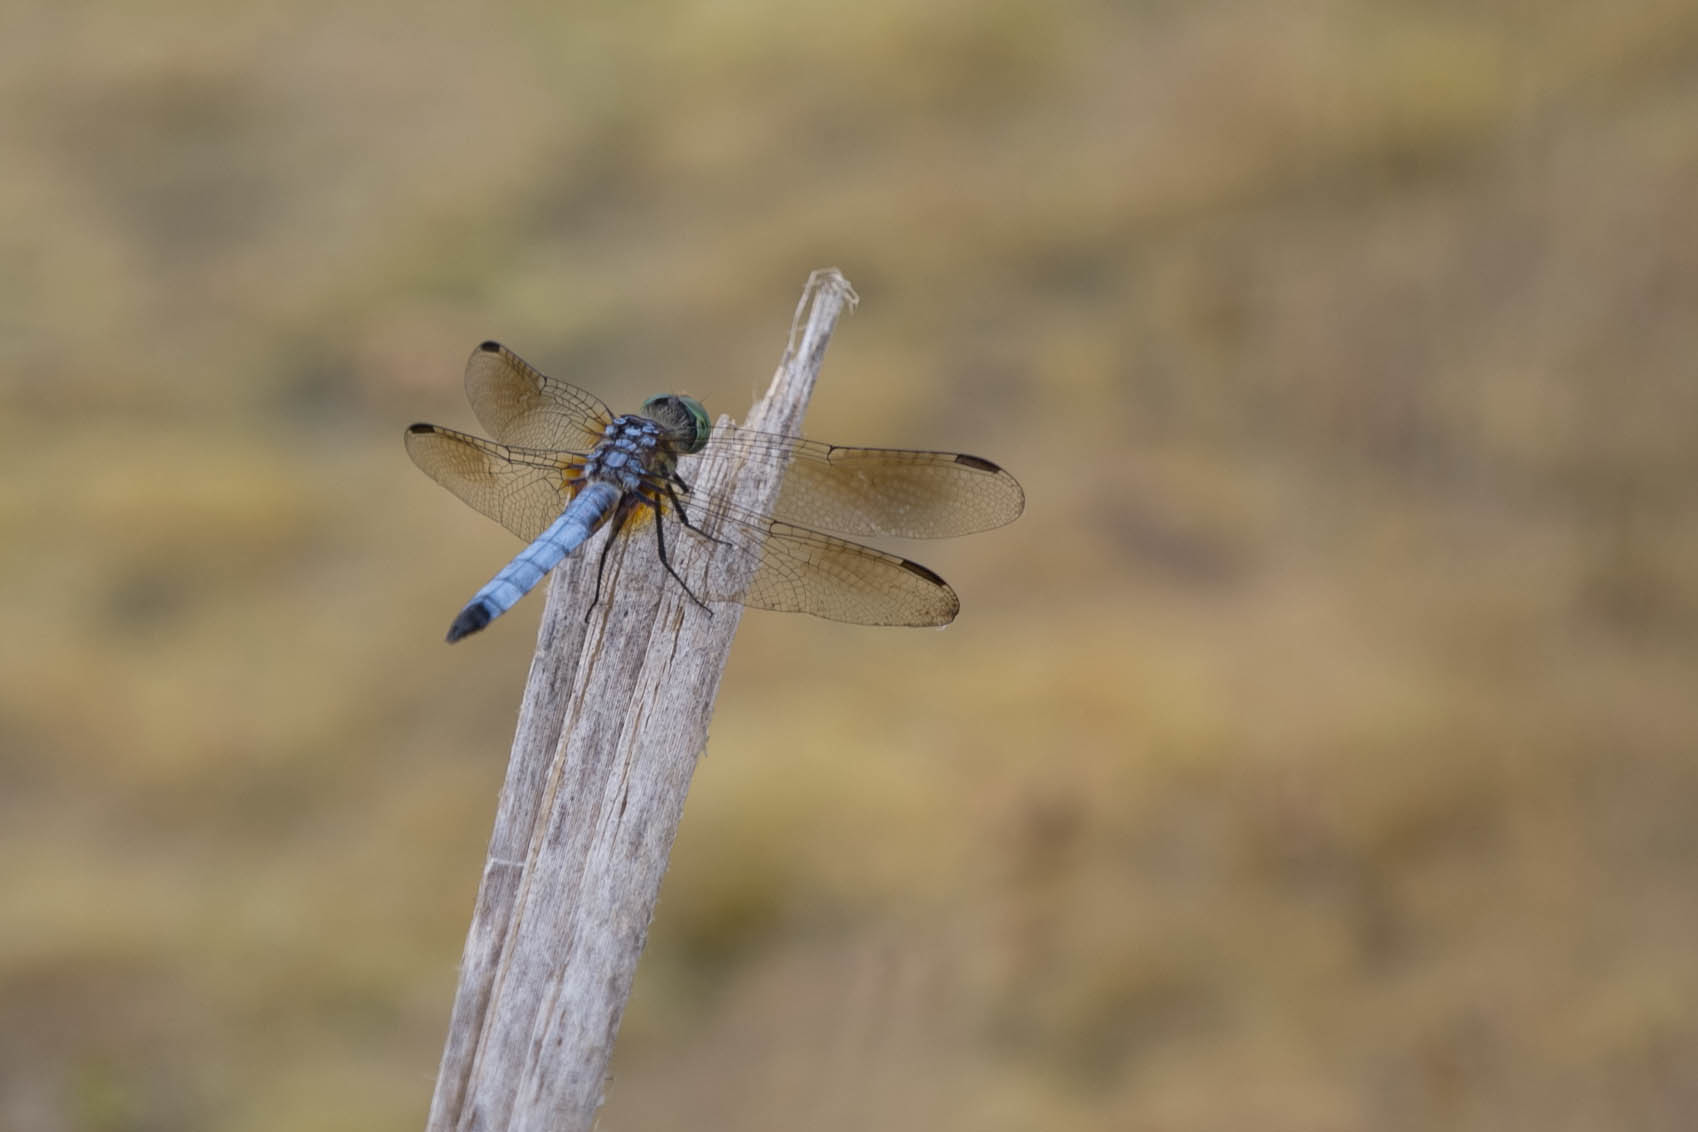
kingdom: Animalia
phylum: Arthropoda
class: Insecta
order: Odonata
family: Libellulidae
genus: Pachydiplax
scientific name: Pachydiplax longipennis
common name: Blue dasher
